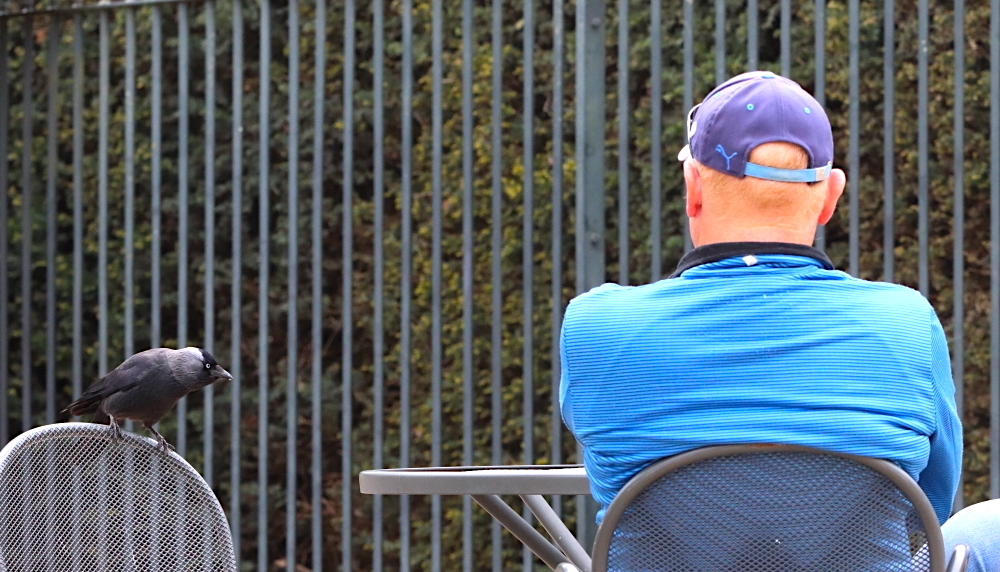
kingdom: Animalia
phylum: Chordata
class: Aves
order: Passeriformes
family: Corvidae
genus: Coloeus
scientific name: Coloeus monedula
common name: Western jackdaw
